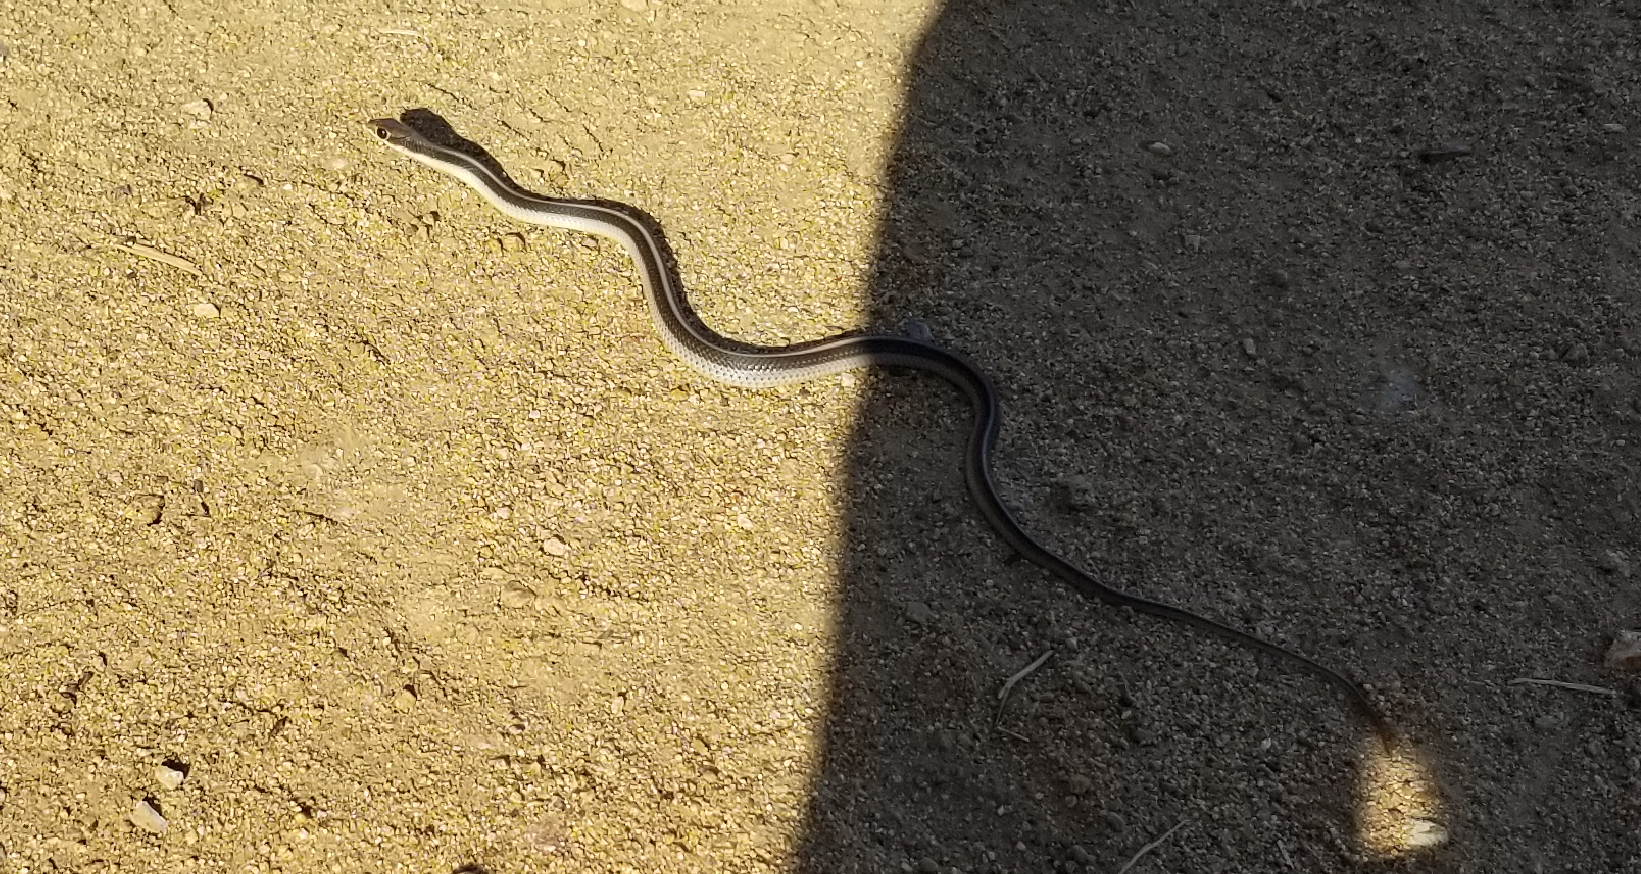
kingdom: Animalia
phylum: Chordata
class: Squamata
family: Colubridae
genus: Salvadora
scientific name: Salvadora hexalepis
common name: Western patchnose snake
